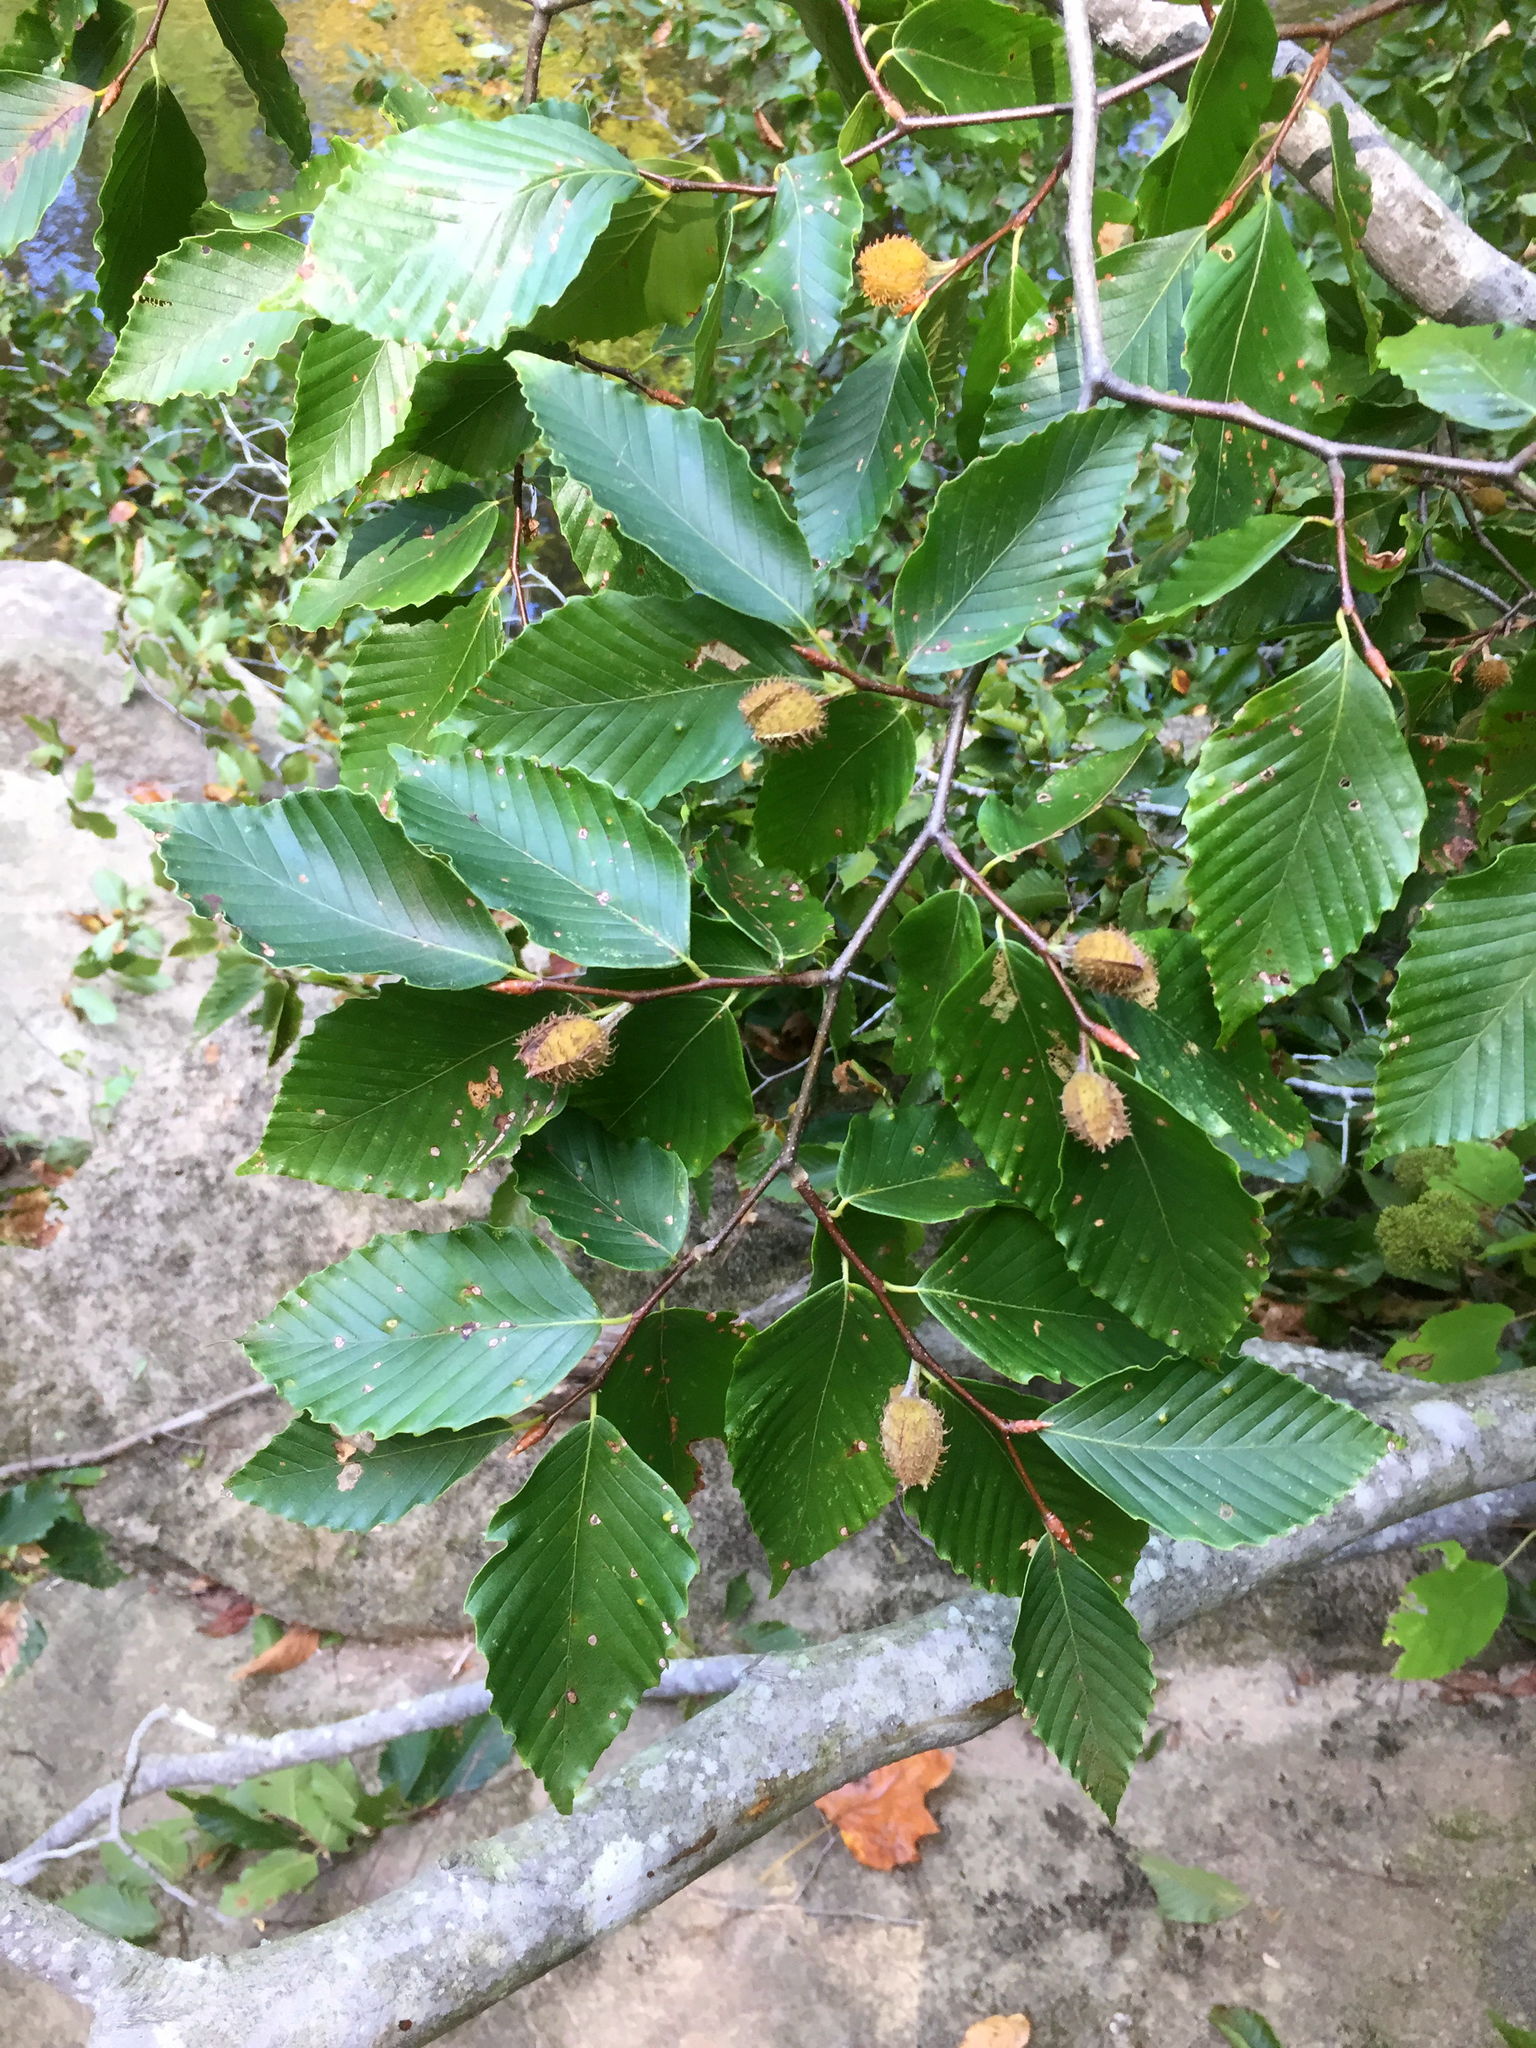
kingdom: Plantae
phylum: Tracheophyta
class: Magnoliopsida
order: Fagales
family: Fagaceae
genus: Fagus
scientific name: Fagus grandifolia
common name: American beech
